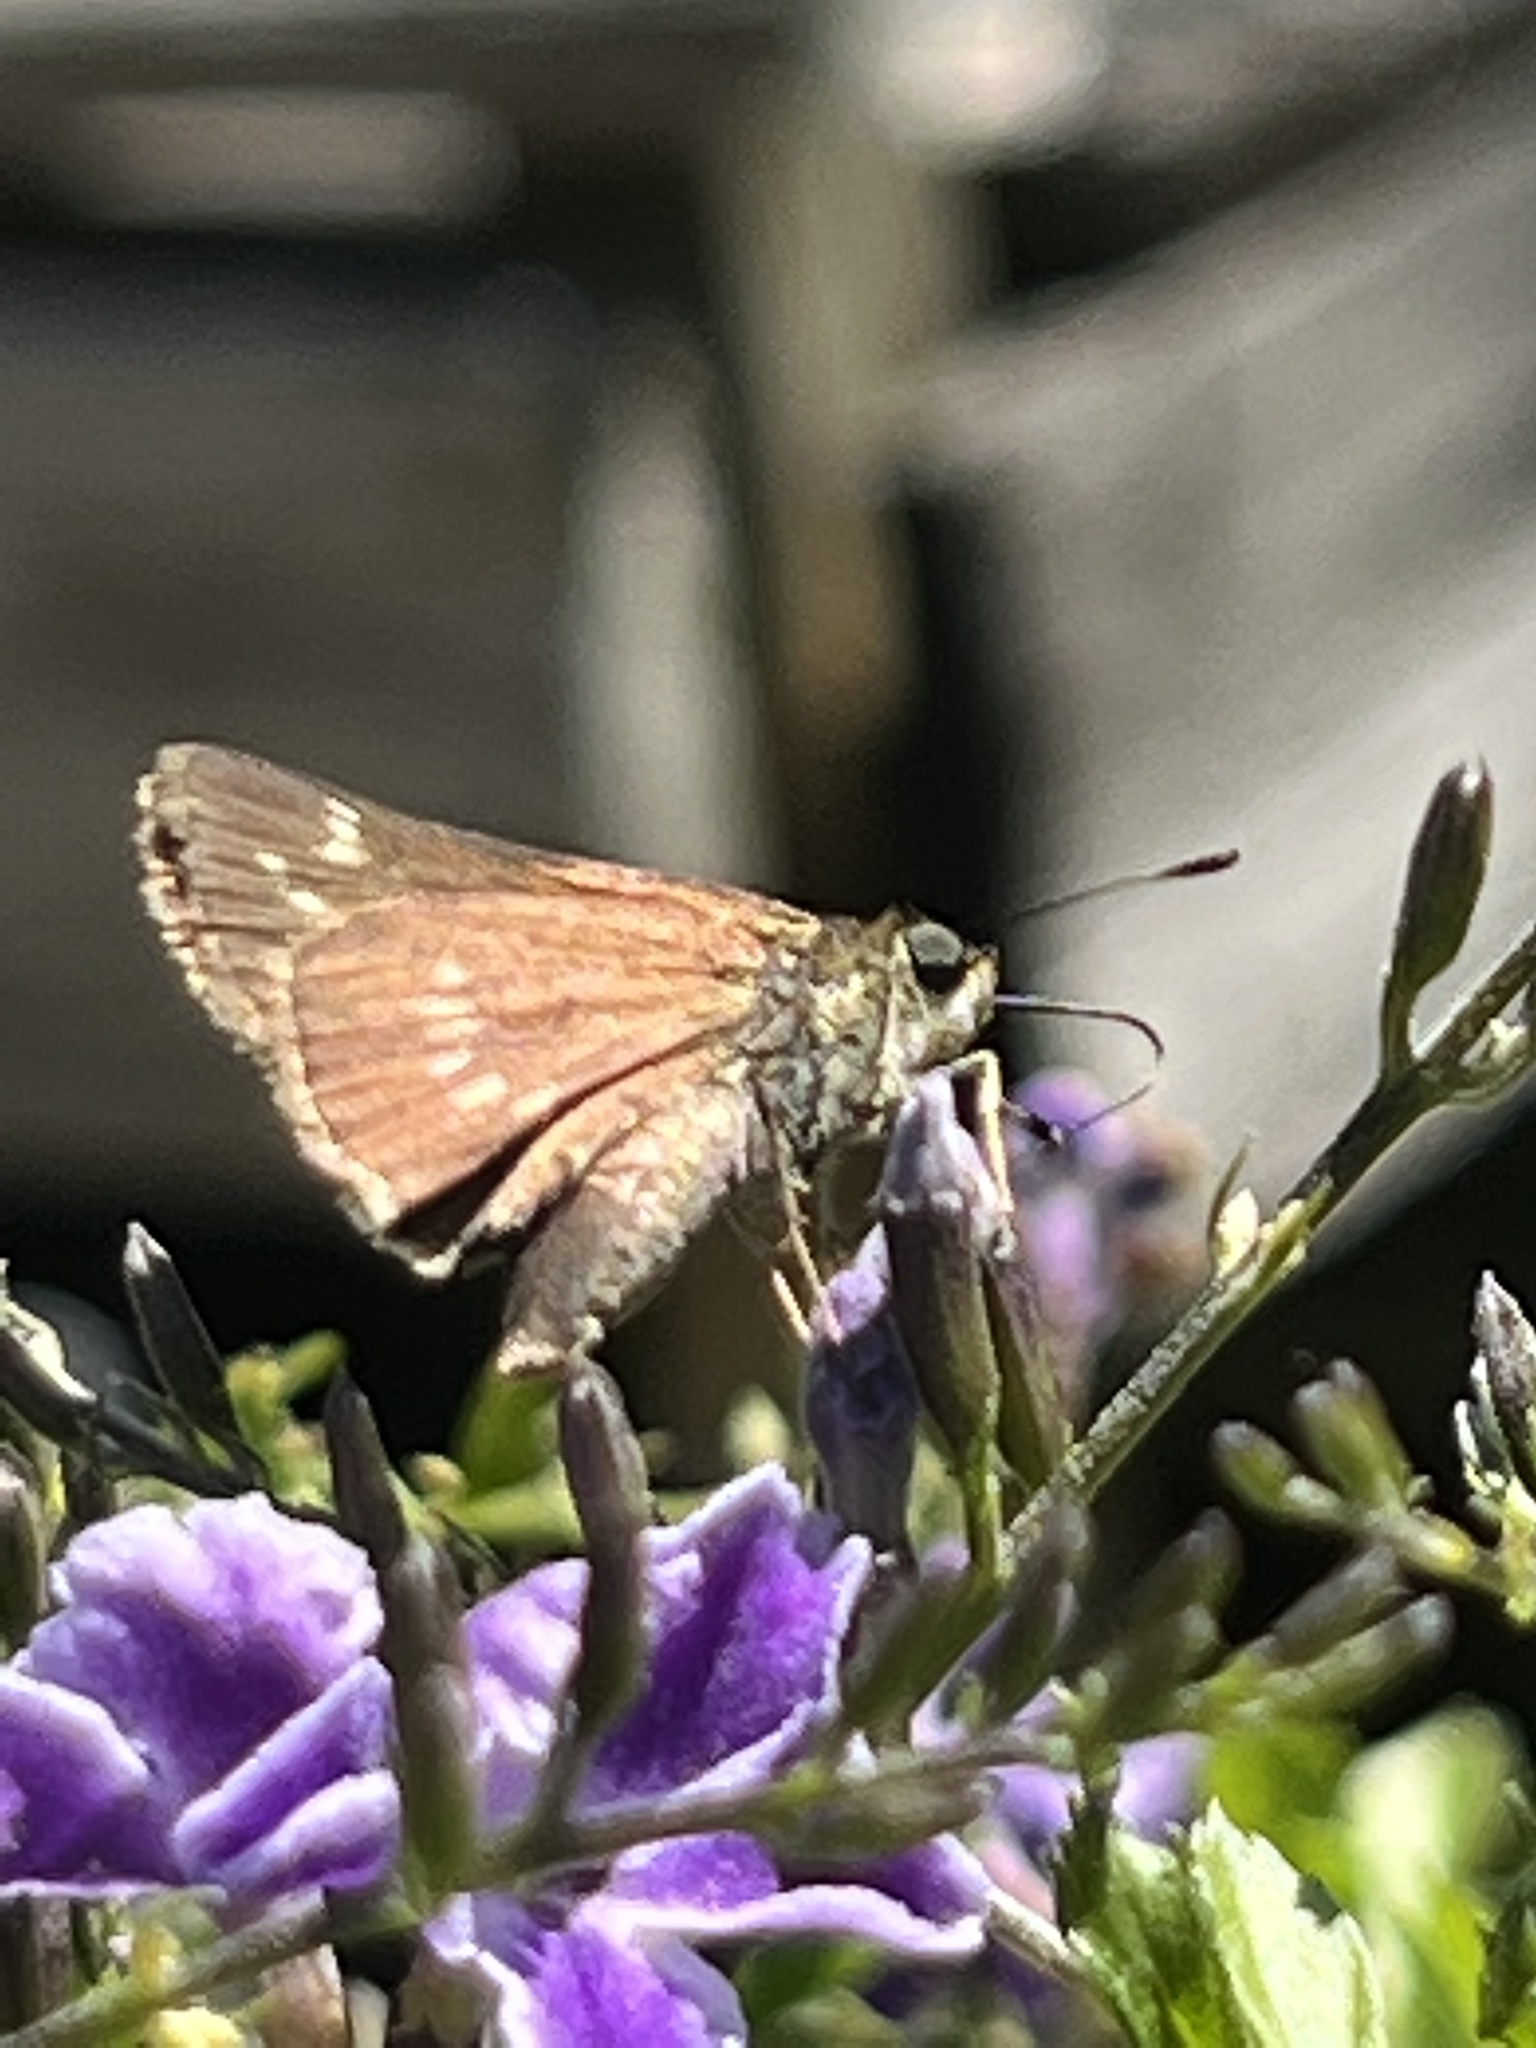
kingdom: Animalia
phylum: Arthropoda
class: Insecta
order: Lepidoptera
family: Hesperiidae
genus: Vernia
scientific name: Vernia verna
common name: Little glassywing
